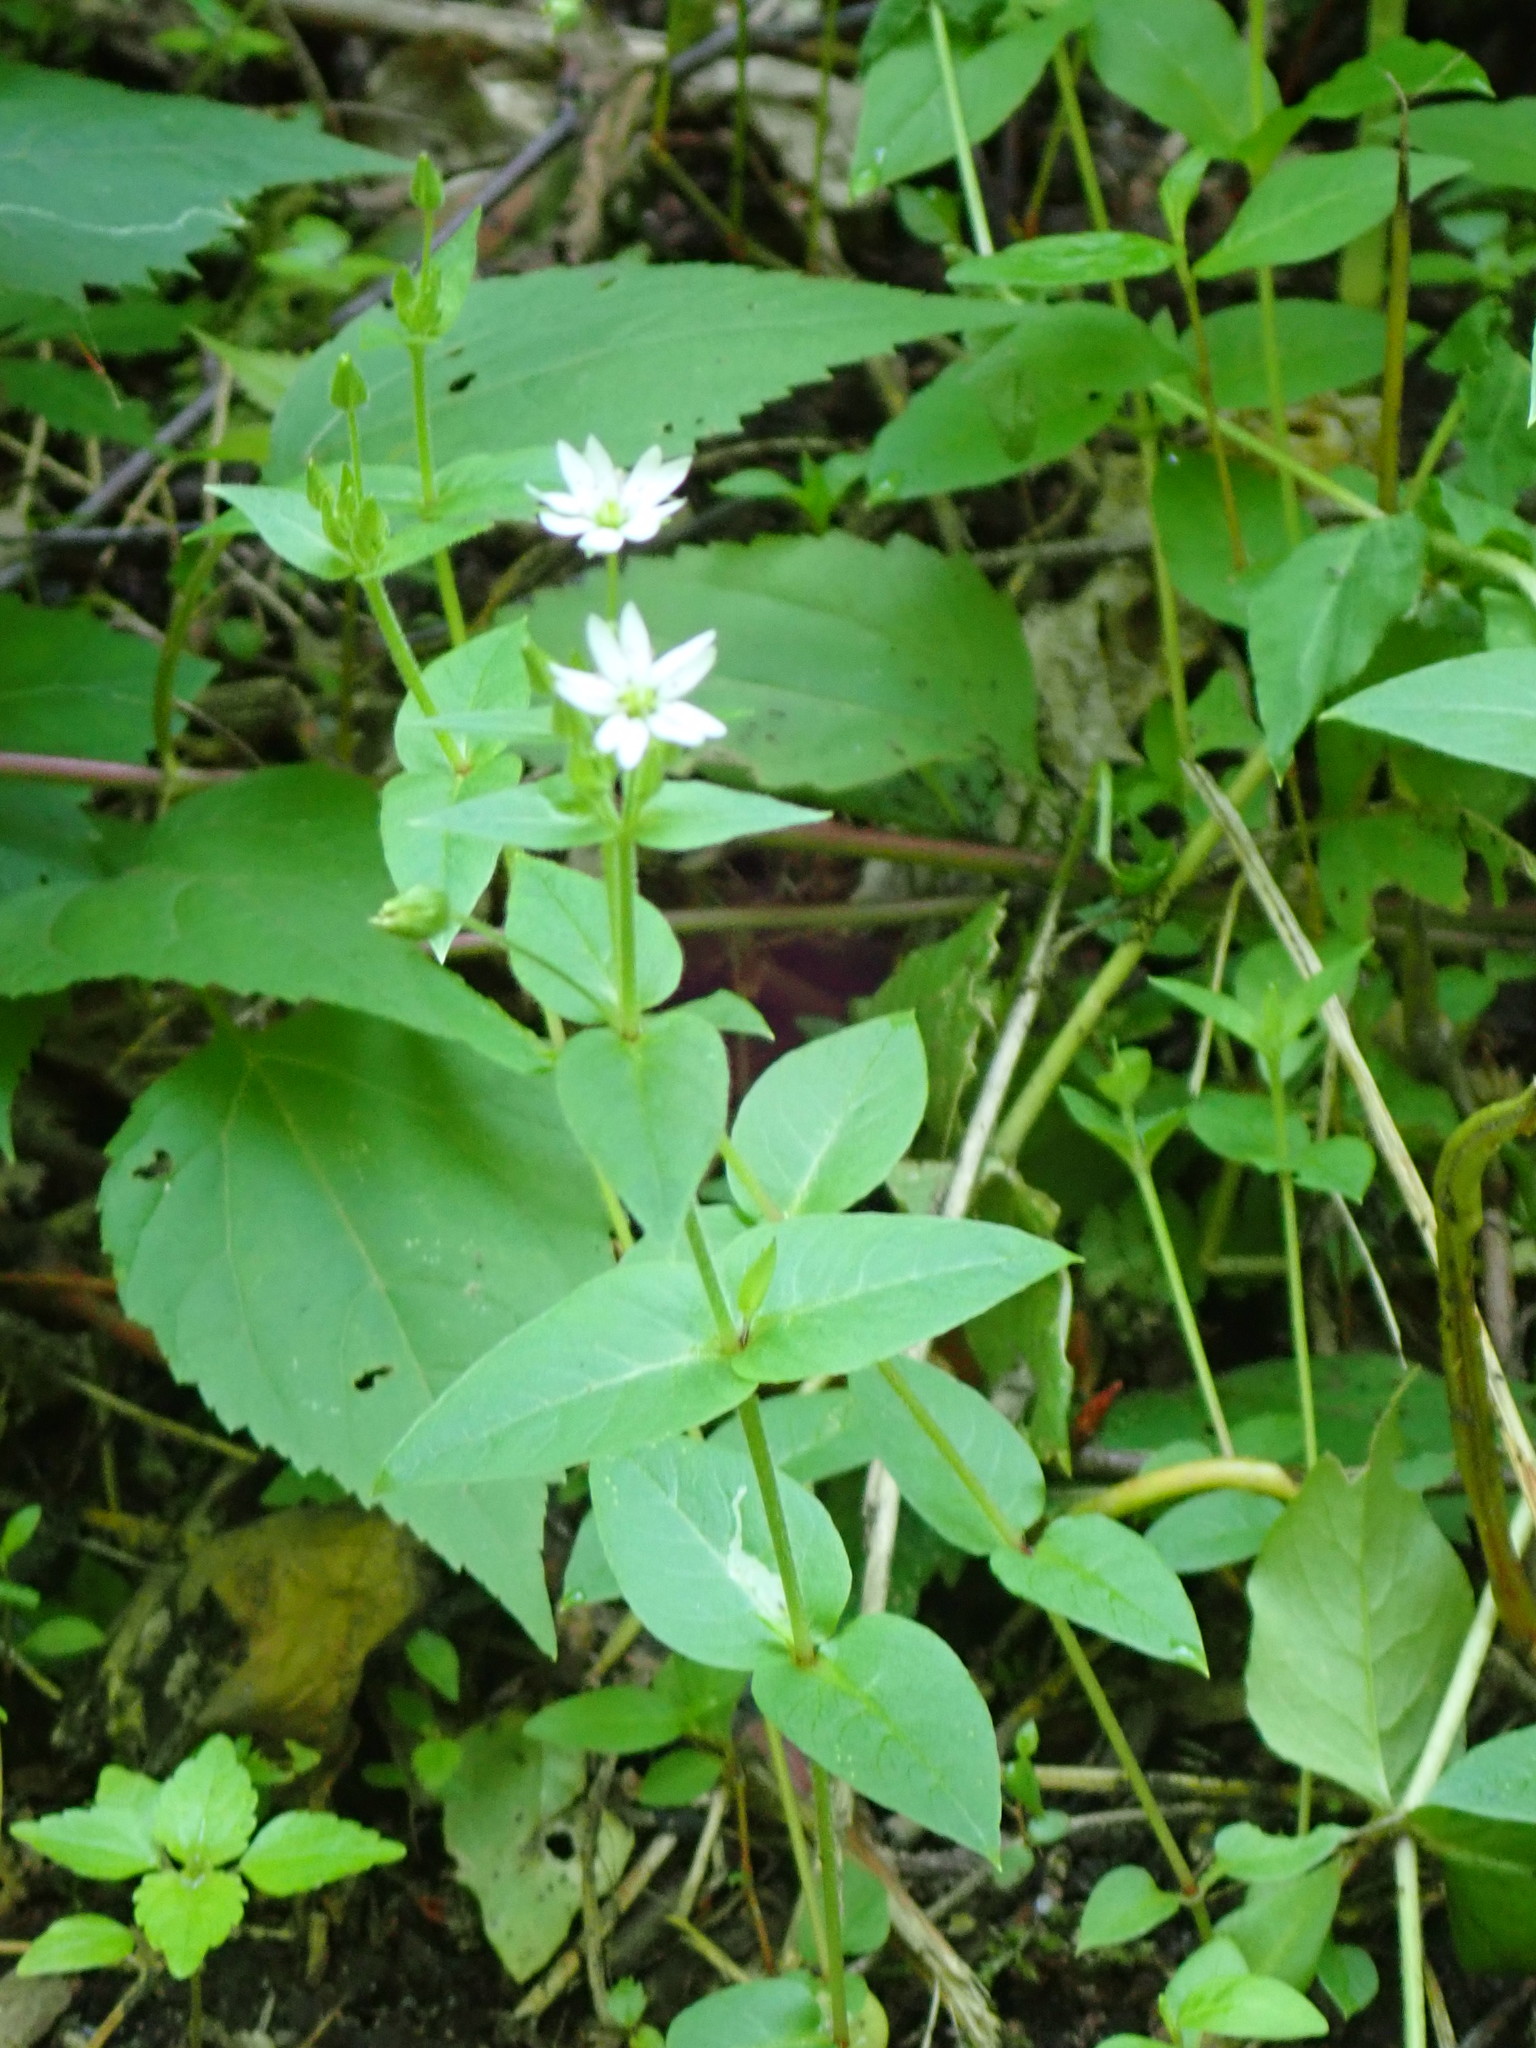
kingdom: Plantae
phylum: Tracheophyta
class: Magnoliopsida
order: Caryophyllales
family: Caryophyllaceae
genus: Stellaria
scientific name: Stellaria aquatica
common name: Water chickweed
